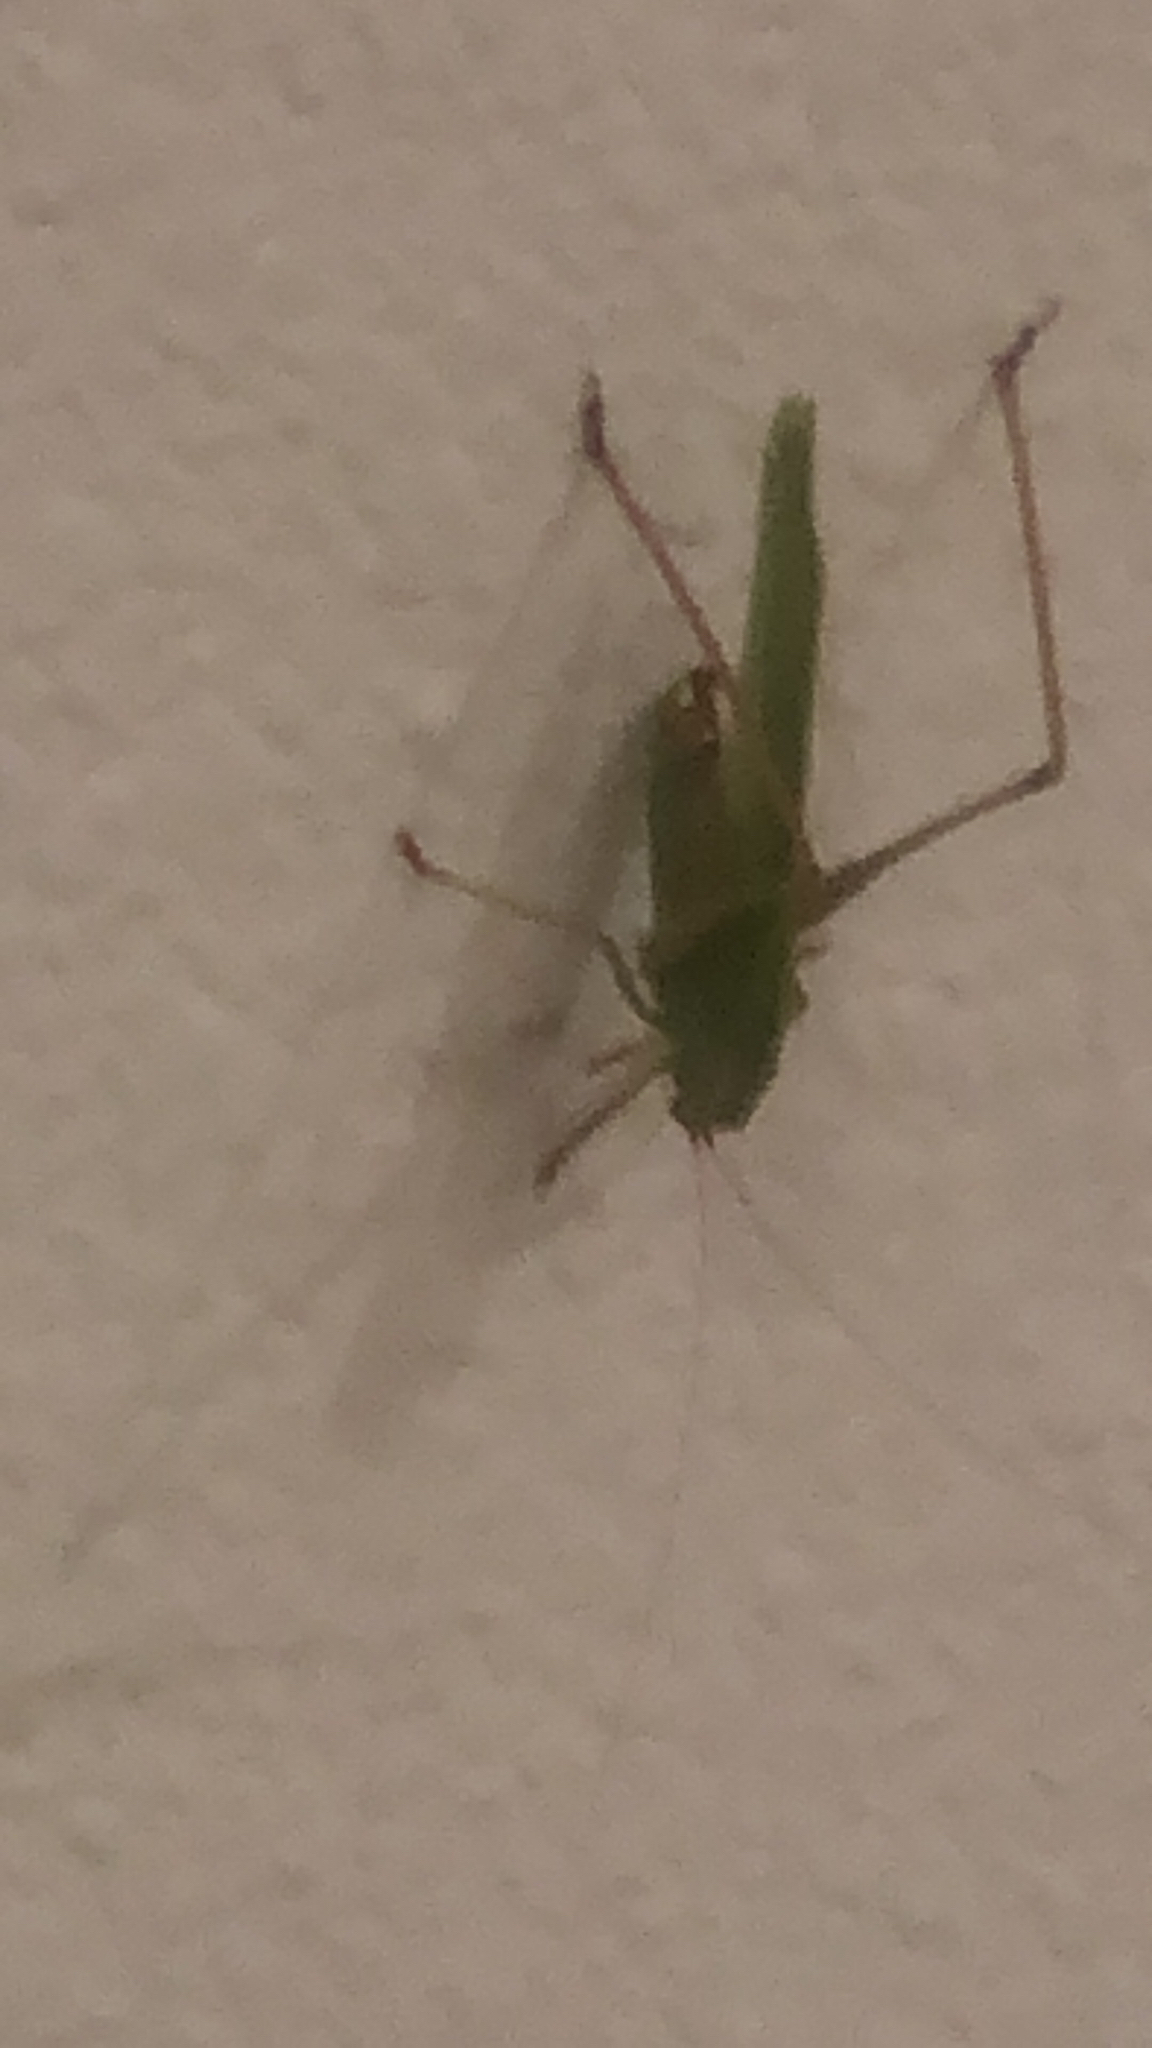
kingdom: Animalia
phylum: Arthropoda
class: Insecta
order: Orthoptera
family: Tettigoniidae
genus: Scudderia
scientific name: Scudderia furcata
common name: Fork-tailed bush katydid
